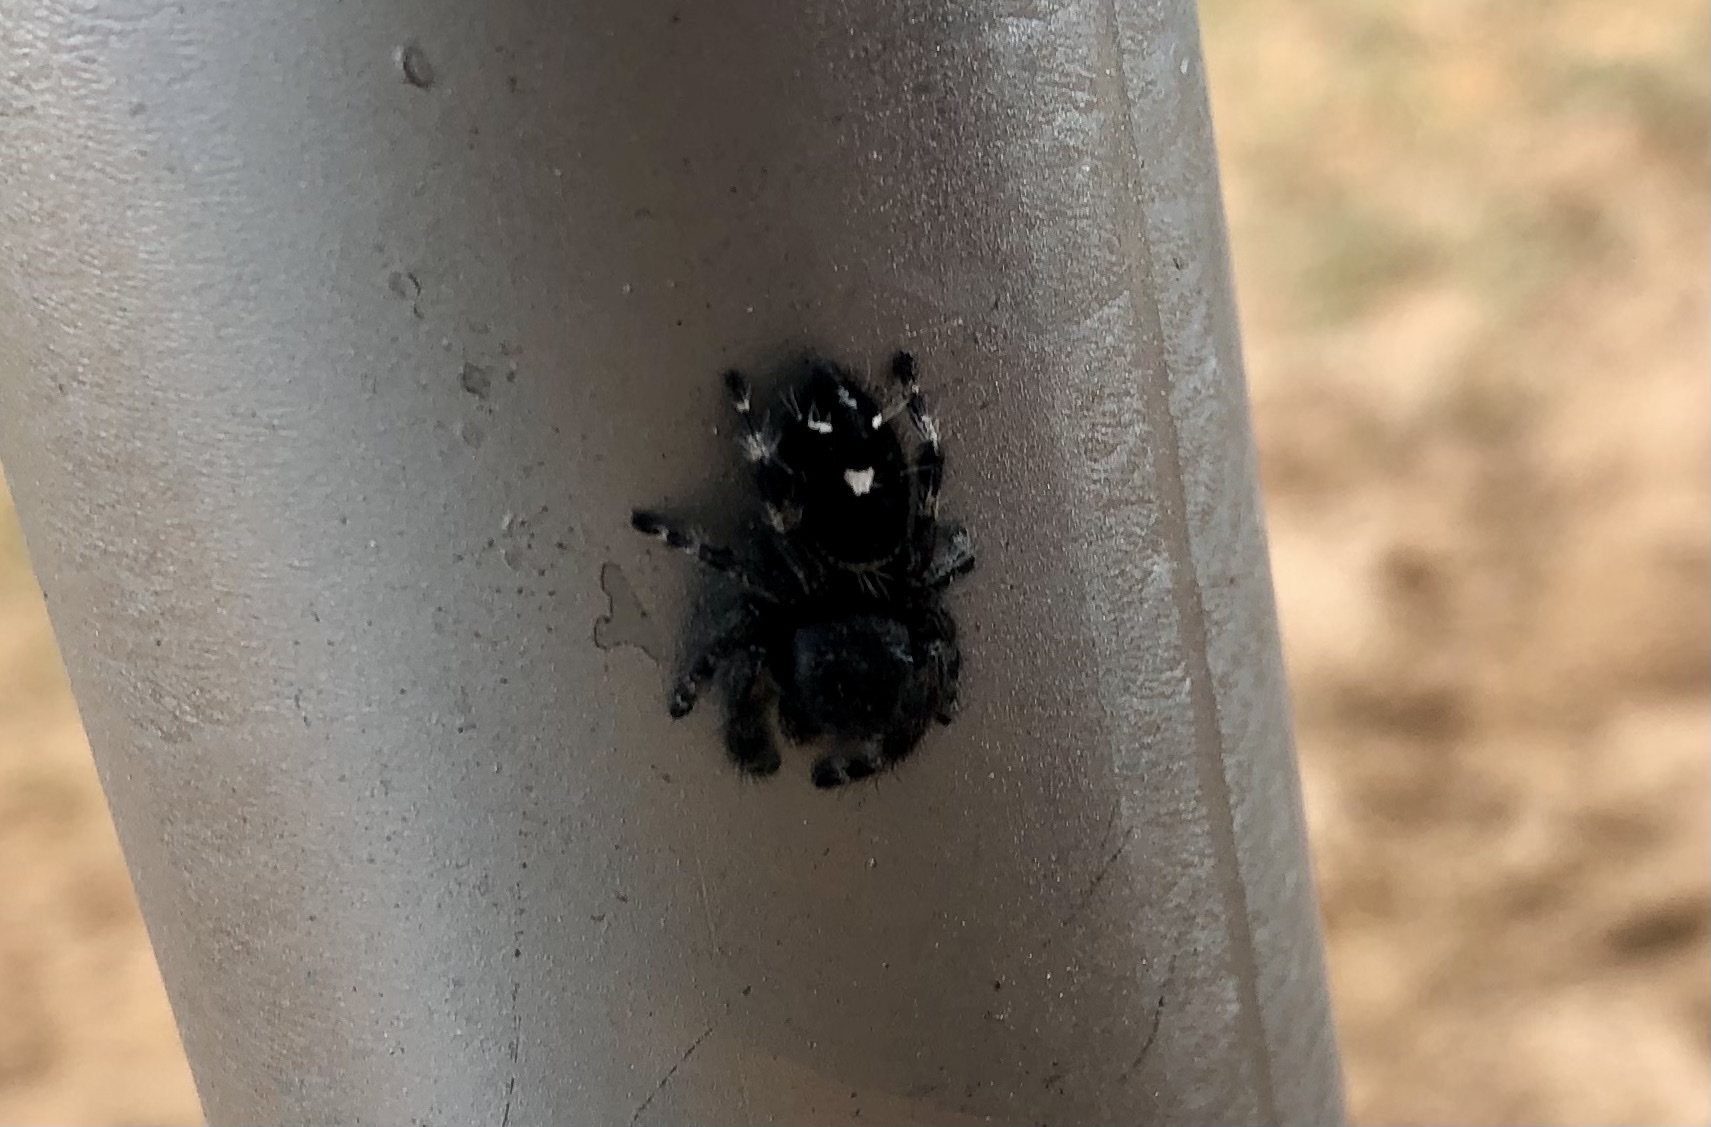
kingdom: Animalia
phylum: Arthropoda
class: Arachnida
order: Araneae
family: Salticidae
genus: Phidippus
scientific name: Phidippus audax
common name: Bold jumper
